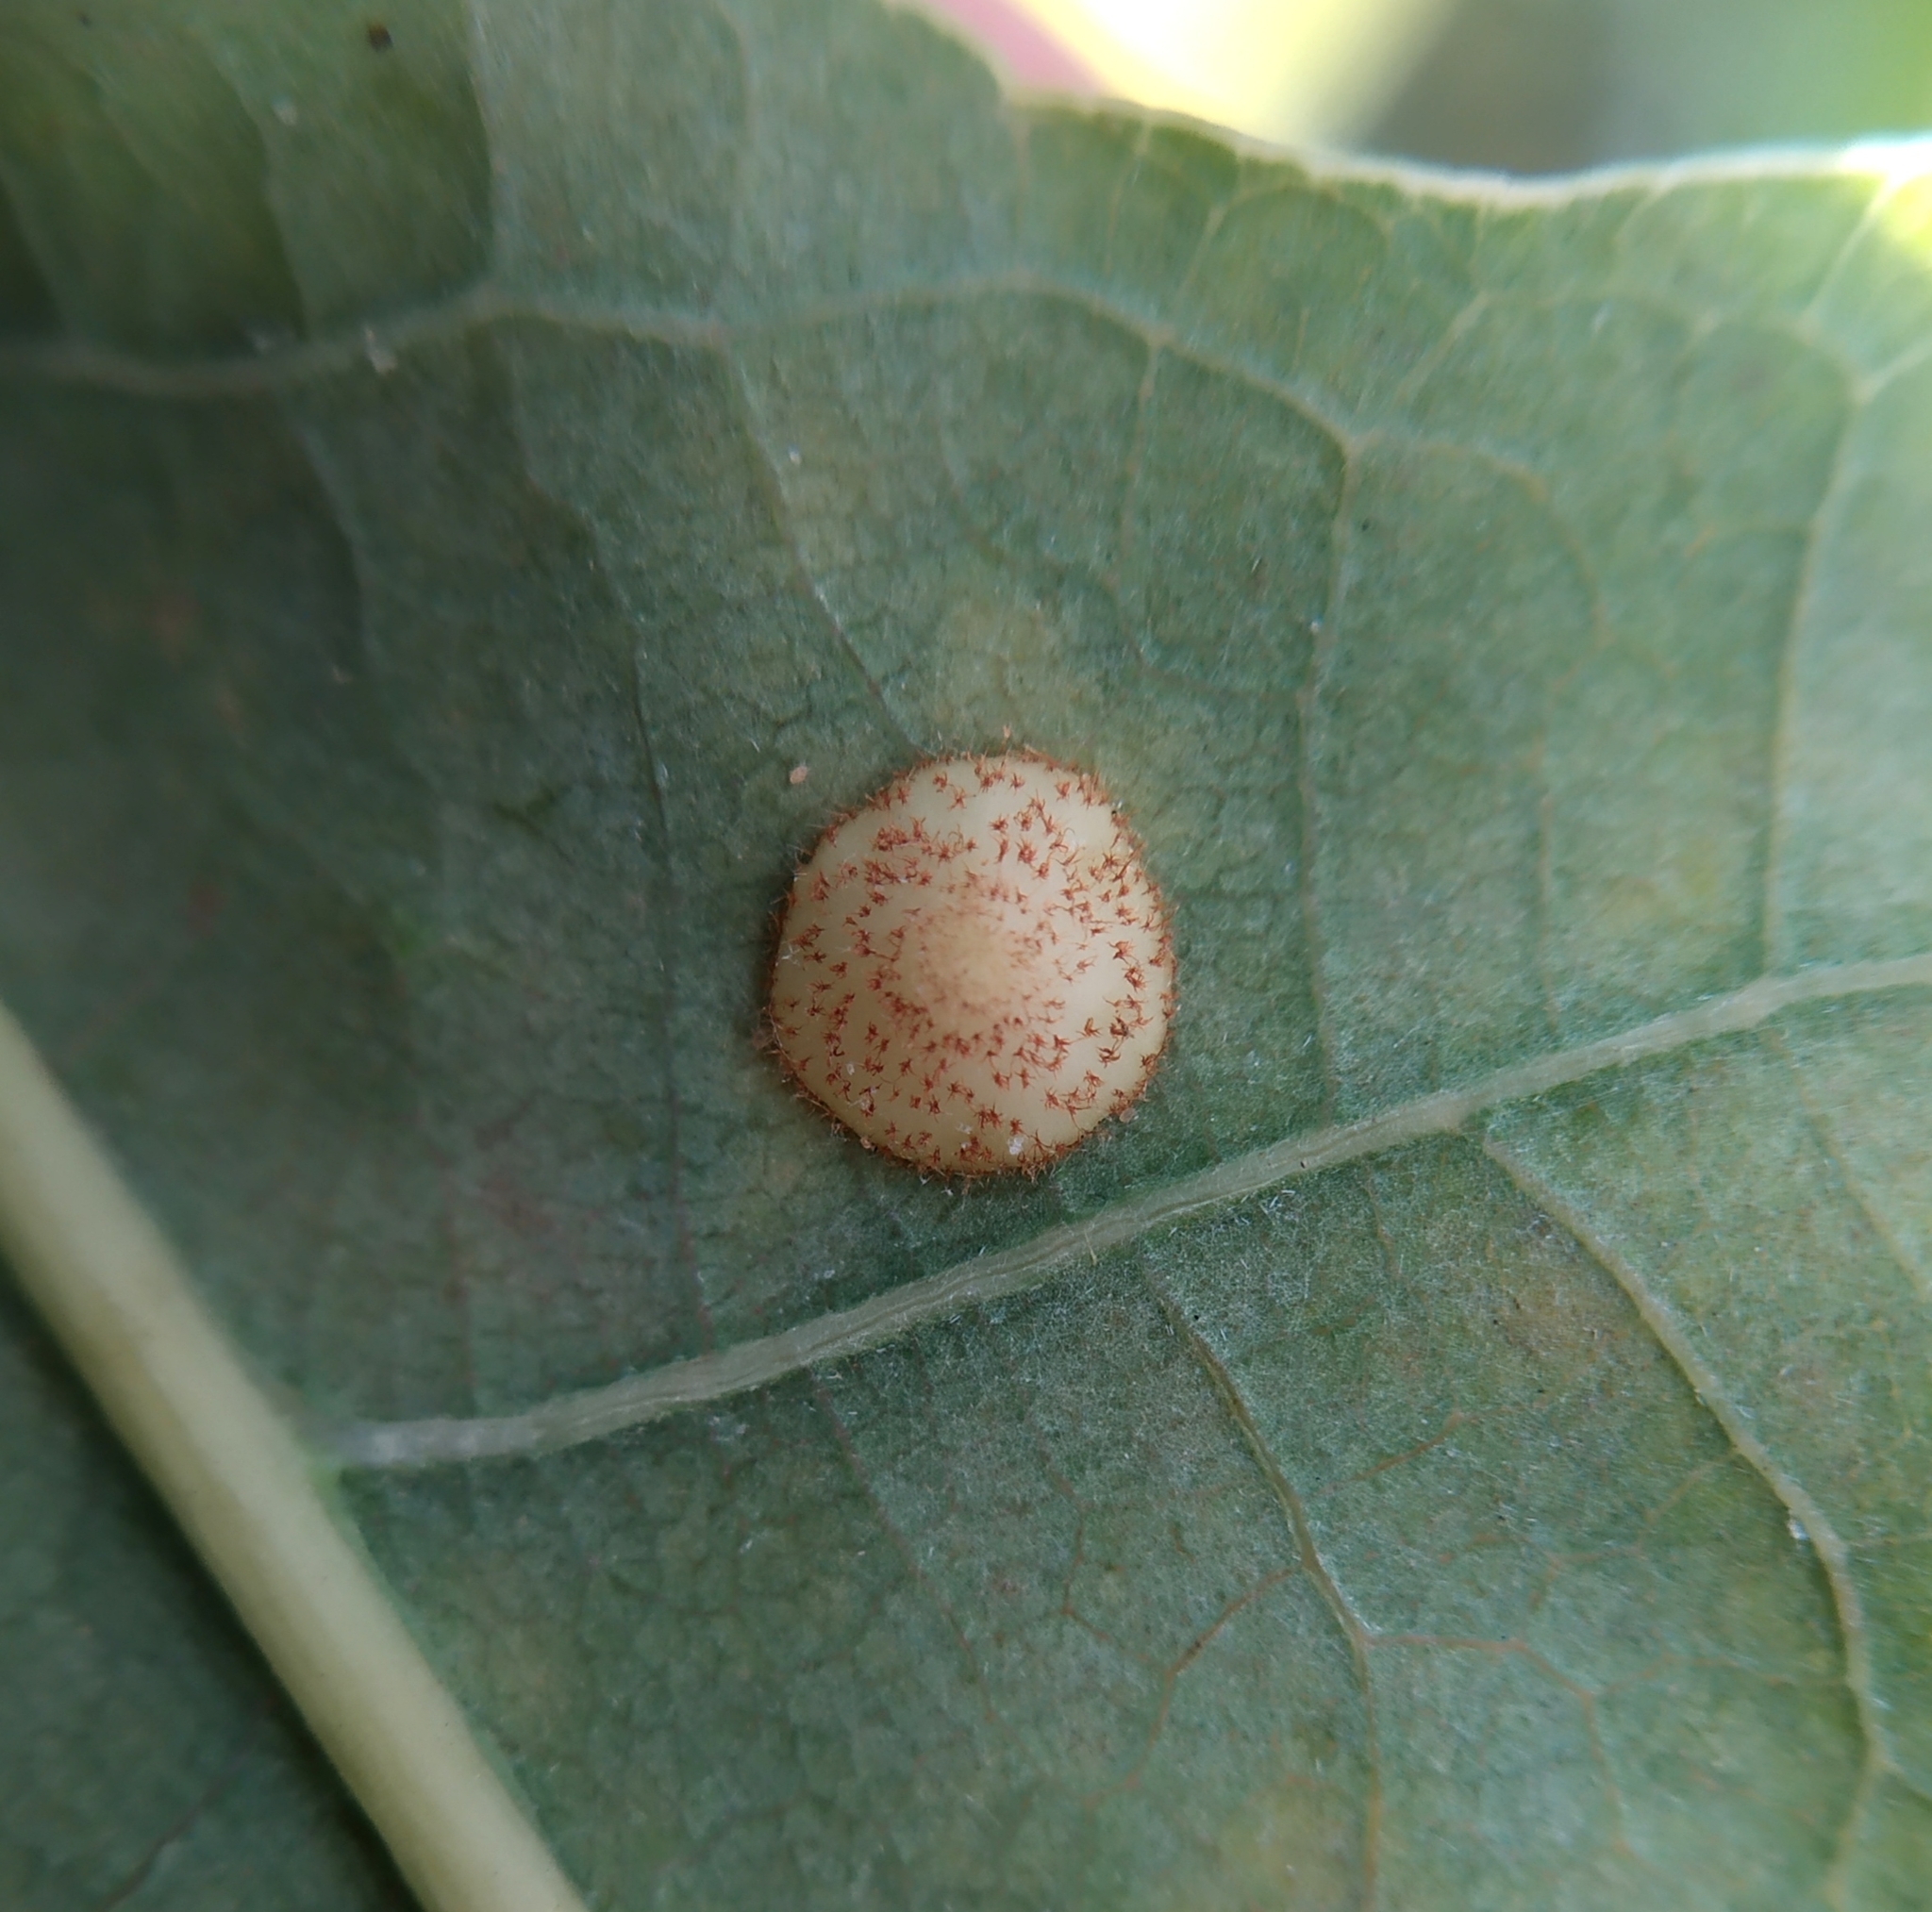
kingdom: Animalia
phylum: Arthropoda
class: Insecta
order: Hymenoptera
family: Cynipidae
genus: Neuroterus
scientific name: Neuroterus quercusbaccarum
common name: Common spangle gall
